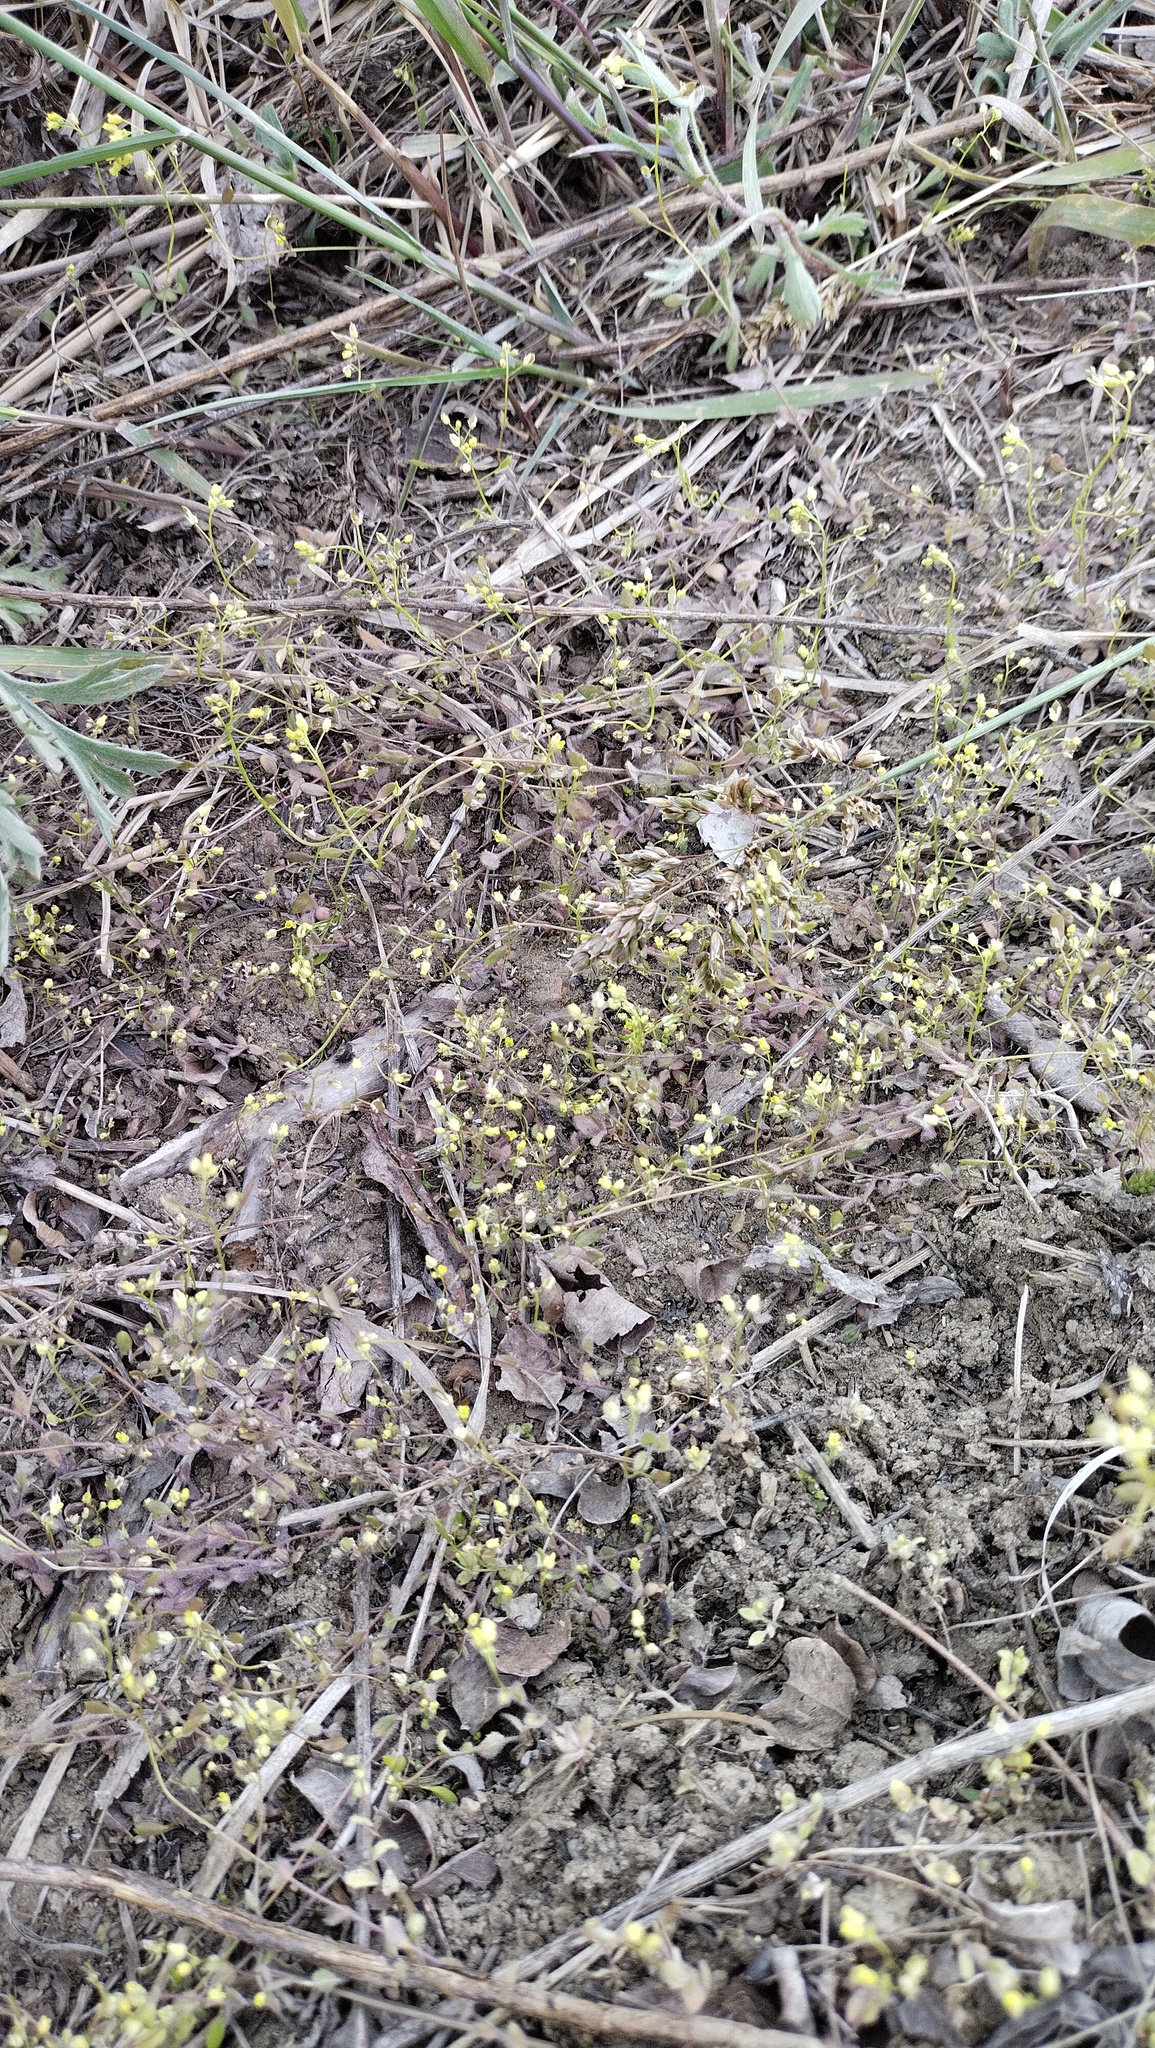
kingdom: Plantae
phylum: Tracheophyta
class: Magnoliopsida
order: Brassicales
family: Brassicaceae
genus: Draba
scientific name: Draba nemorosa
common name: Wood whitlow-grass
